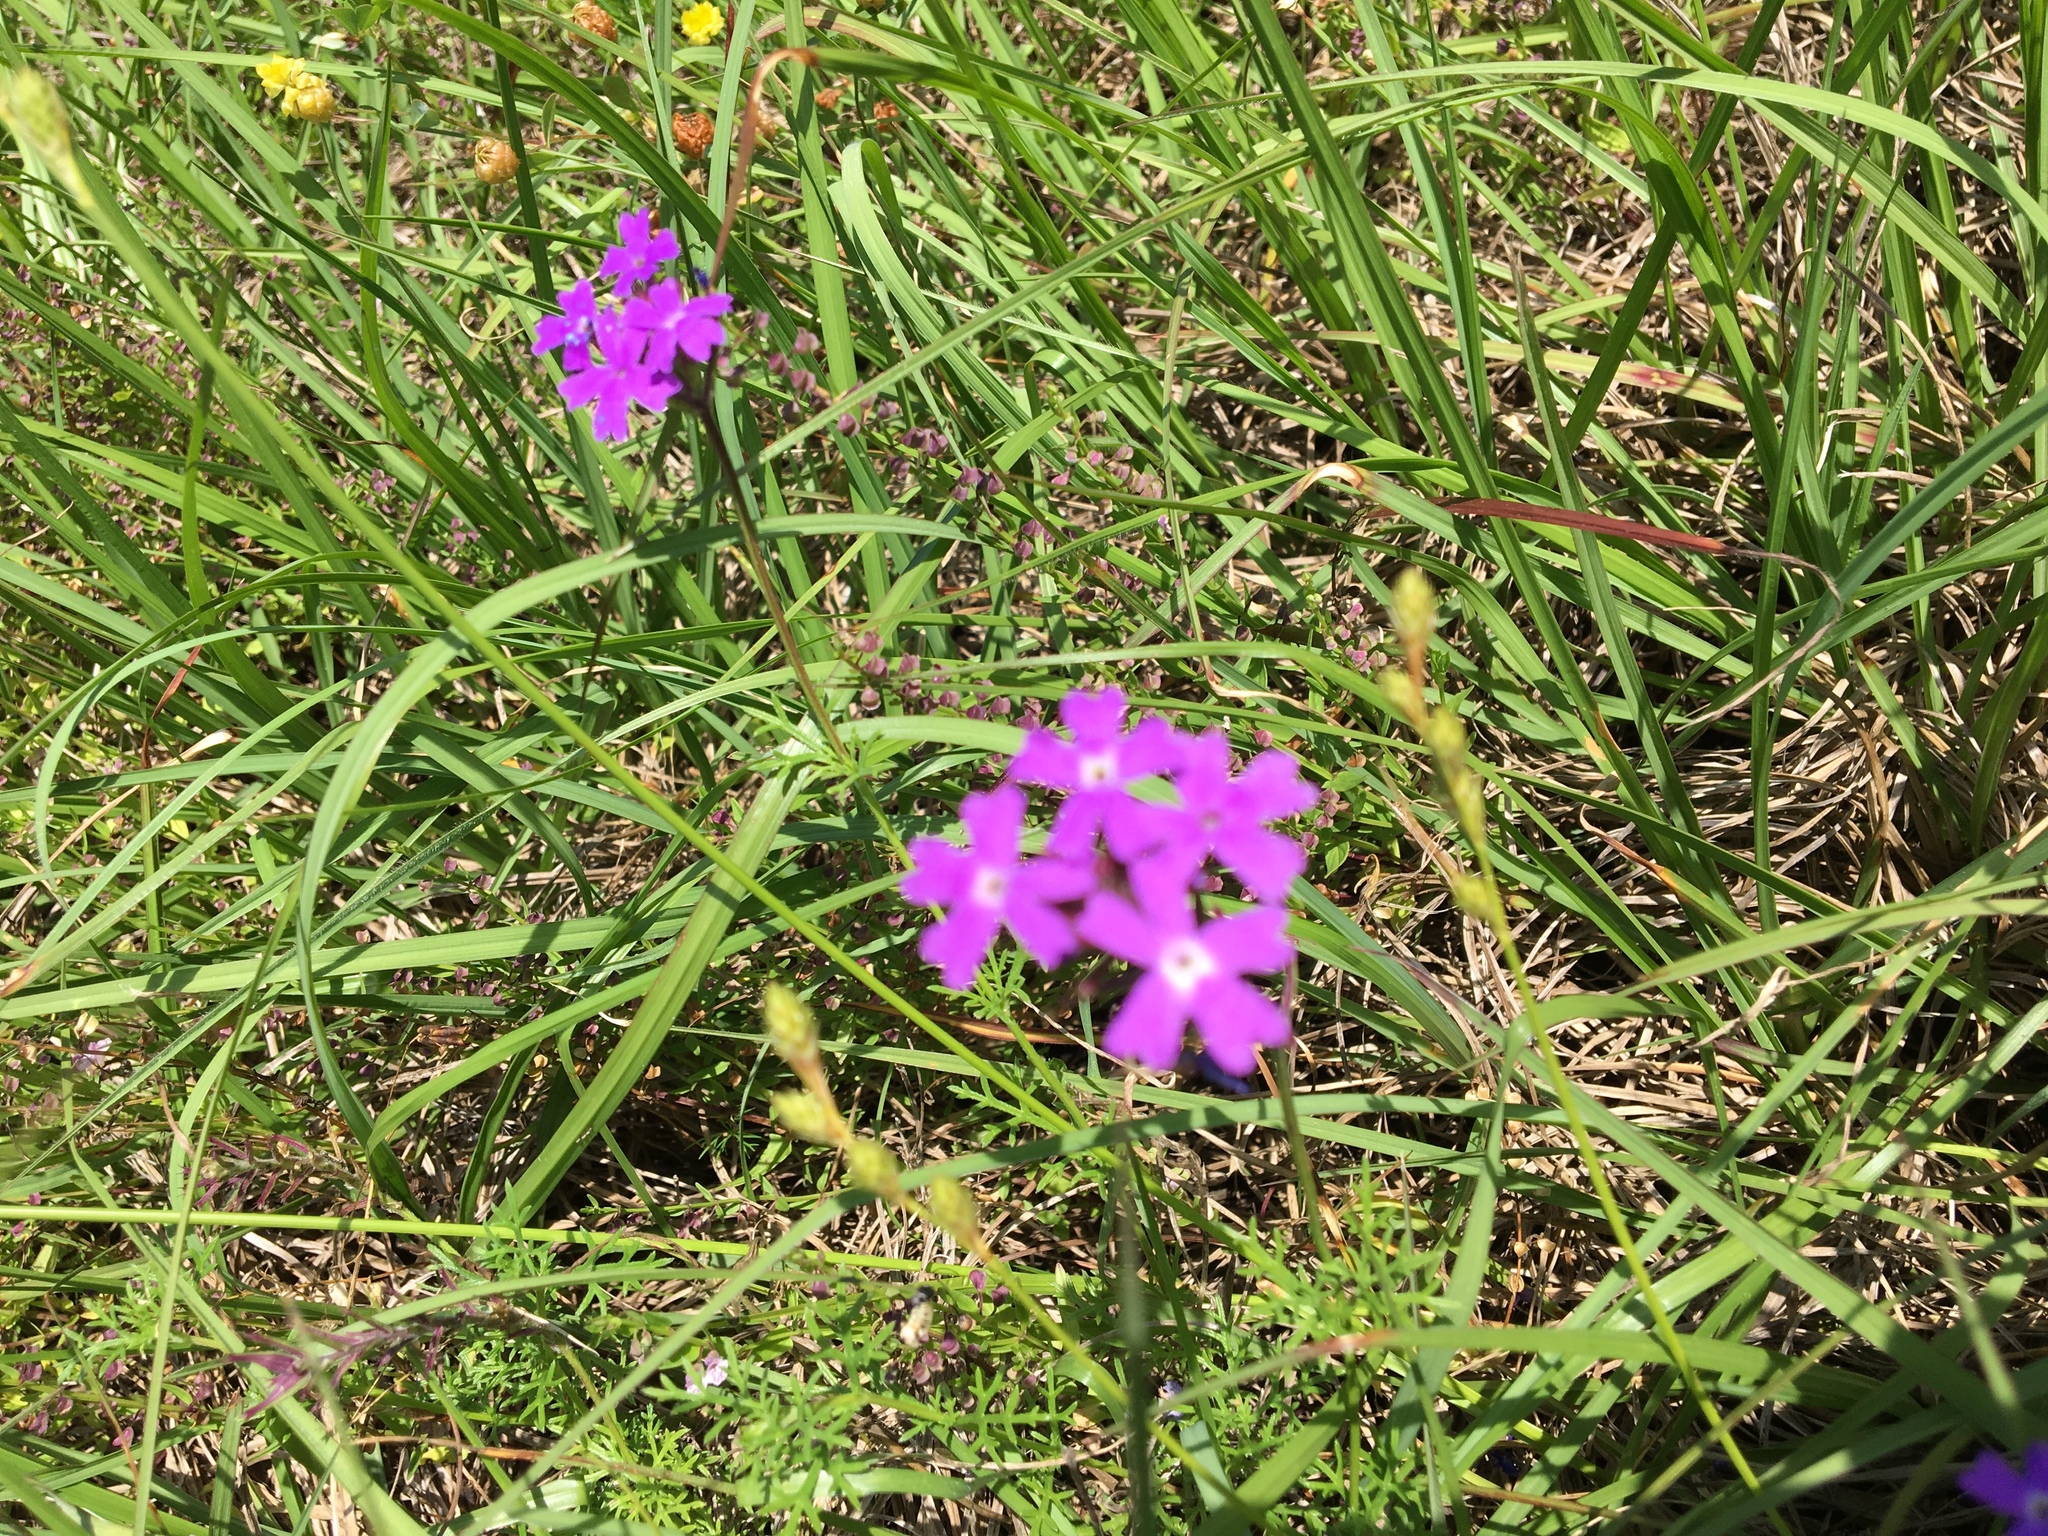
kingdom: Plantae
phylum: Tracheophyta
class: Magnoliopsida
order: Lamiales
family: Verbenaceae
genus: Verbena
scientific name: Verbena
